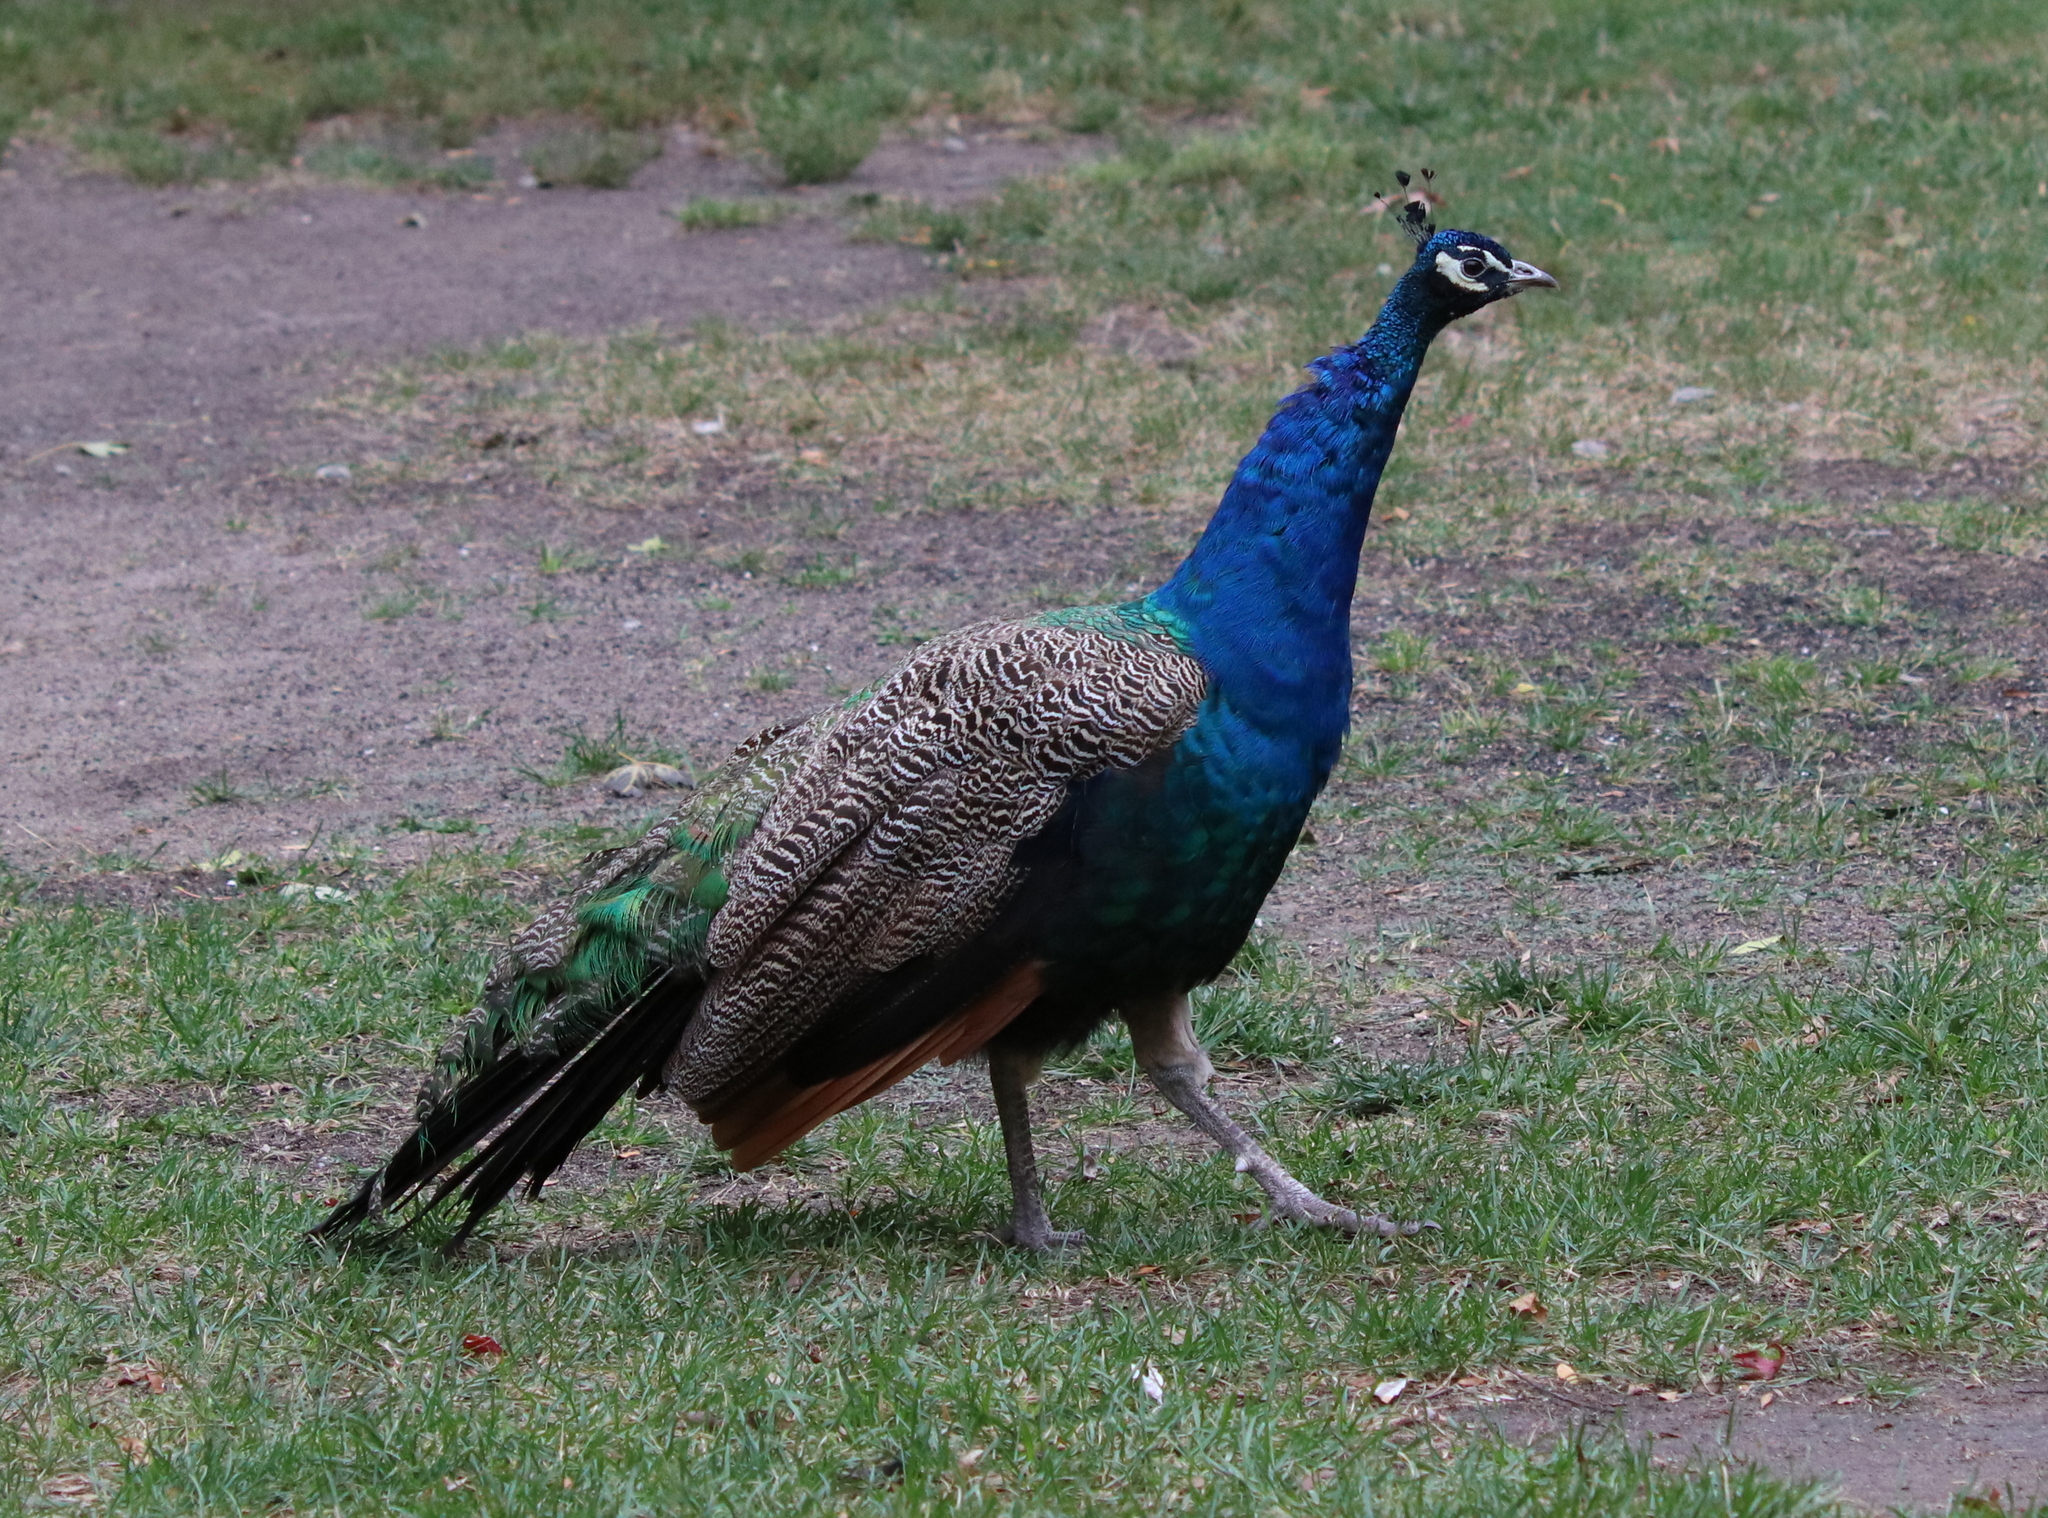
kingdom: Animalia
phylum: Chordata
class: Aves
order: Galliformes
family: Phasianidae
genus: Pavo
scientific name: Pavo cristatus
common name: Indian peafowl
